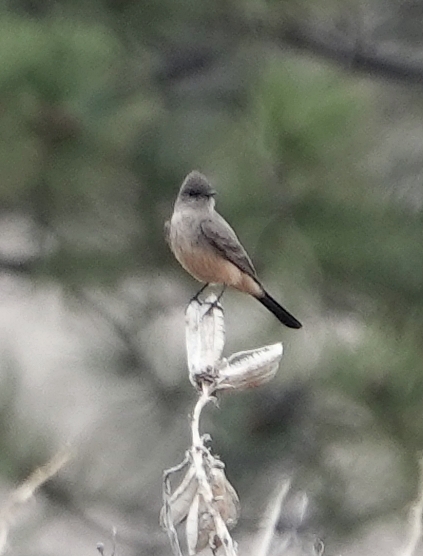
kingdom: Animalia
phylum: Chordata
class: Aves
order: Passeriformes
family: Tyrannidae
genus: Sayornis
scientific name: Sayornis saya
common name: Say's phoebe
